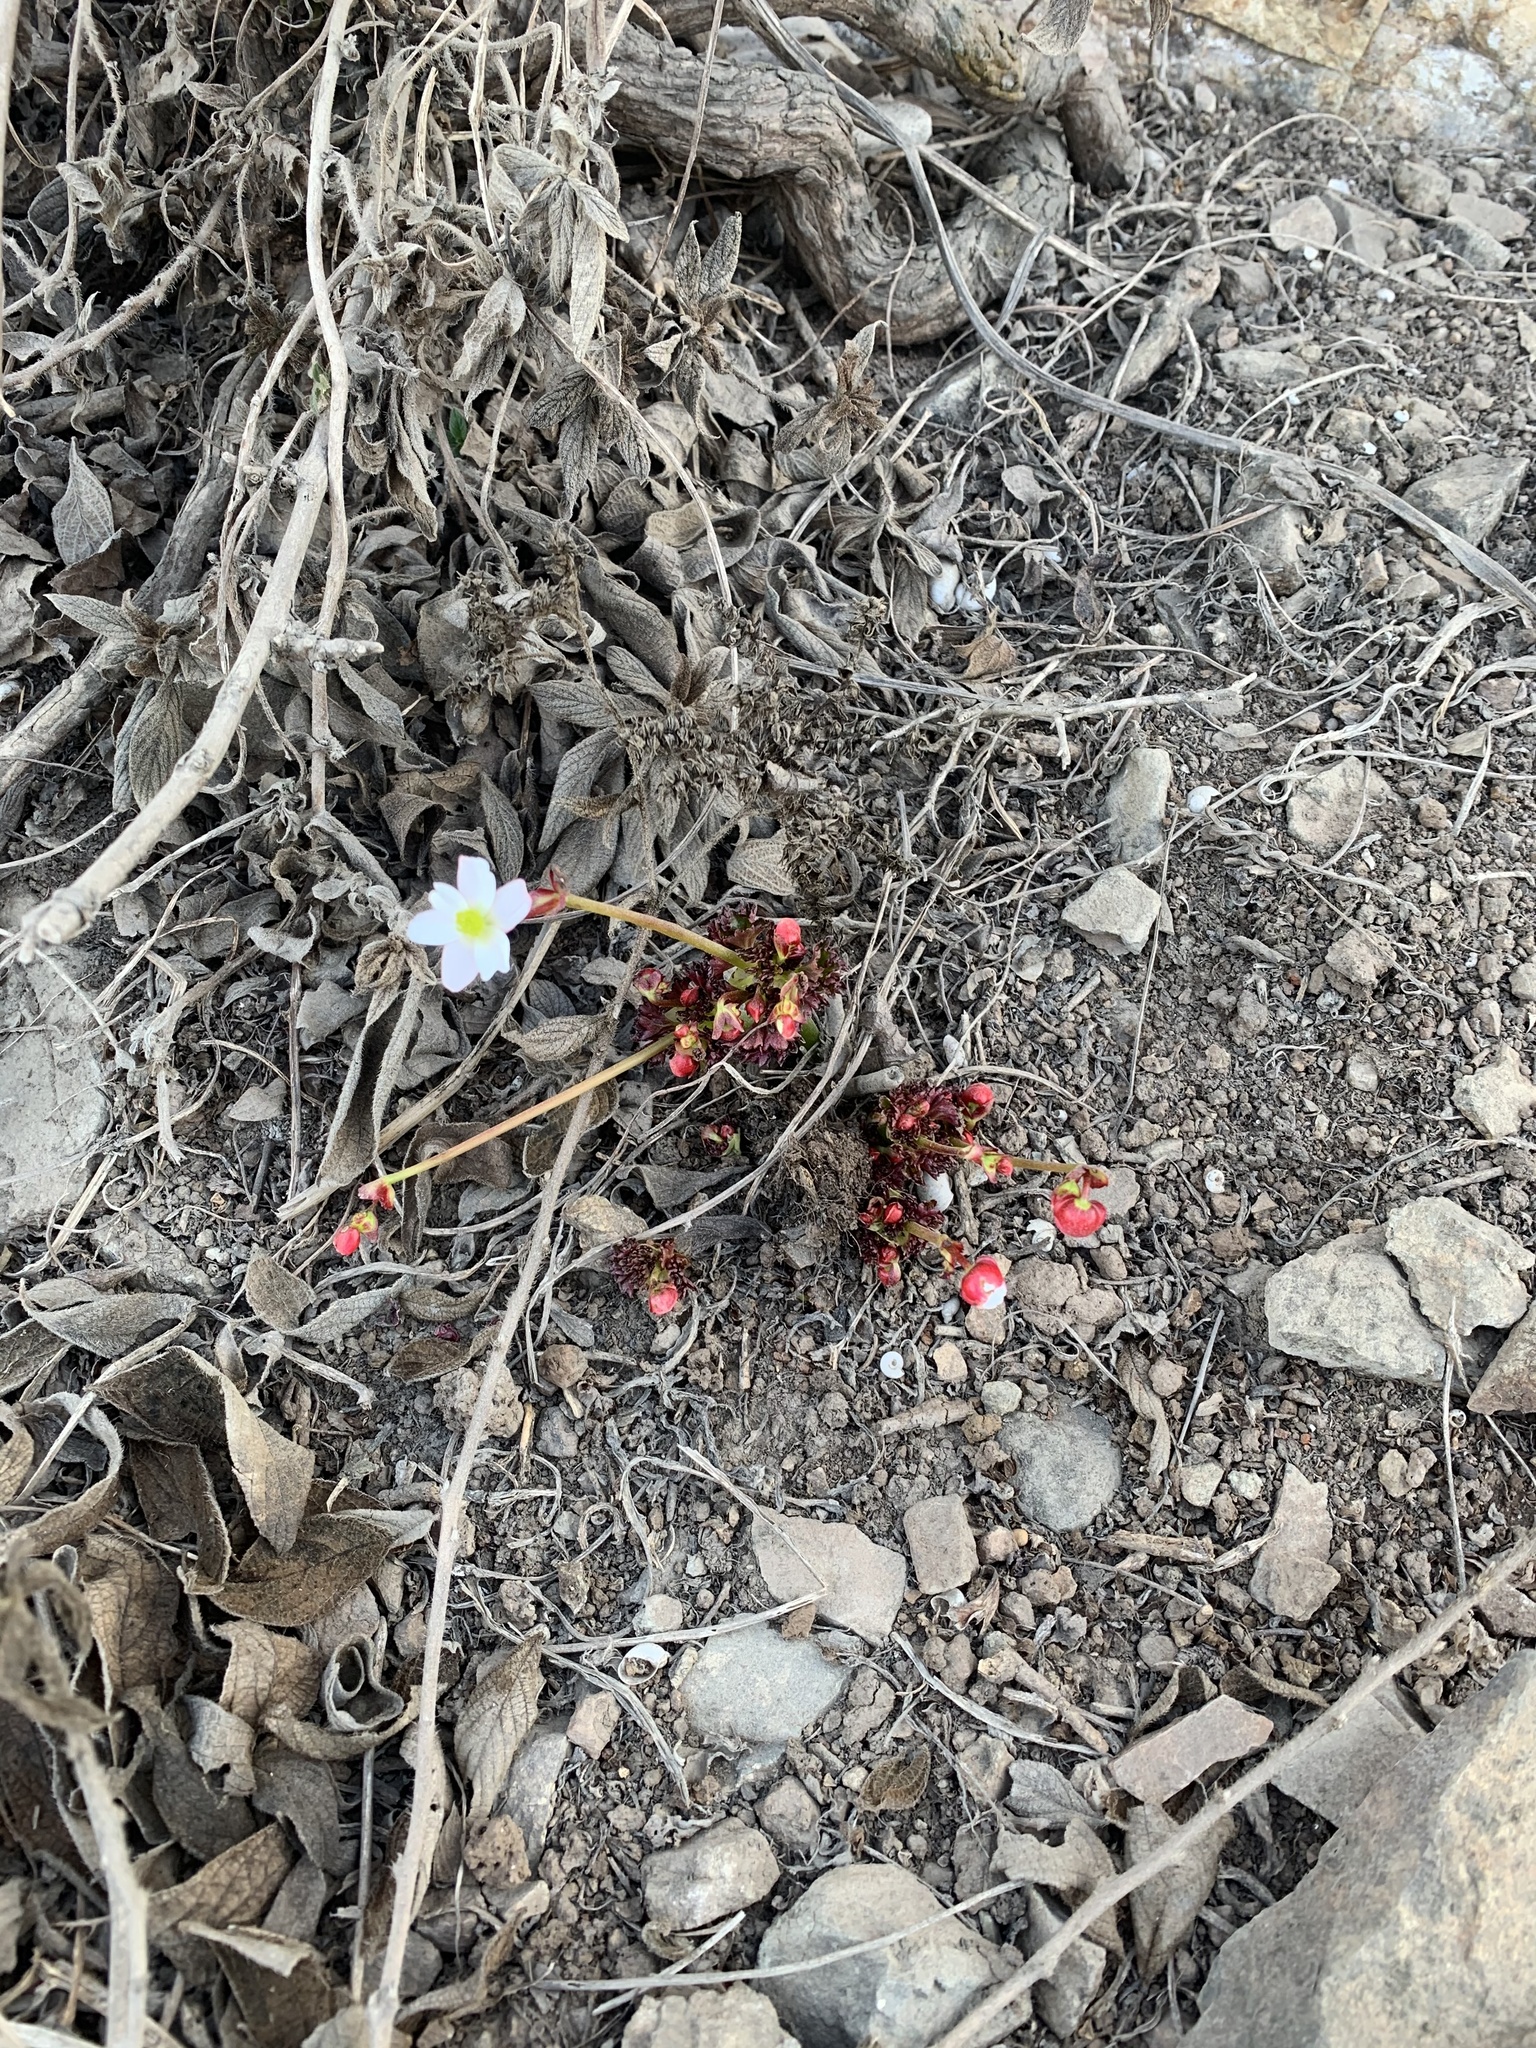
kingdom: Plantae
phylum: Tracheophyta
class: Magnoliopsida
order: Cucurbitales
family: Begoniaceae
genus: Begonia
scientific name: Begonia geraniifolia
